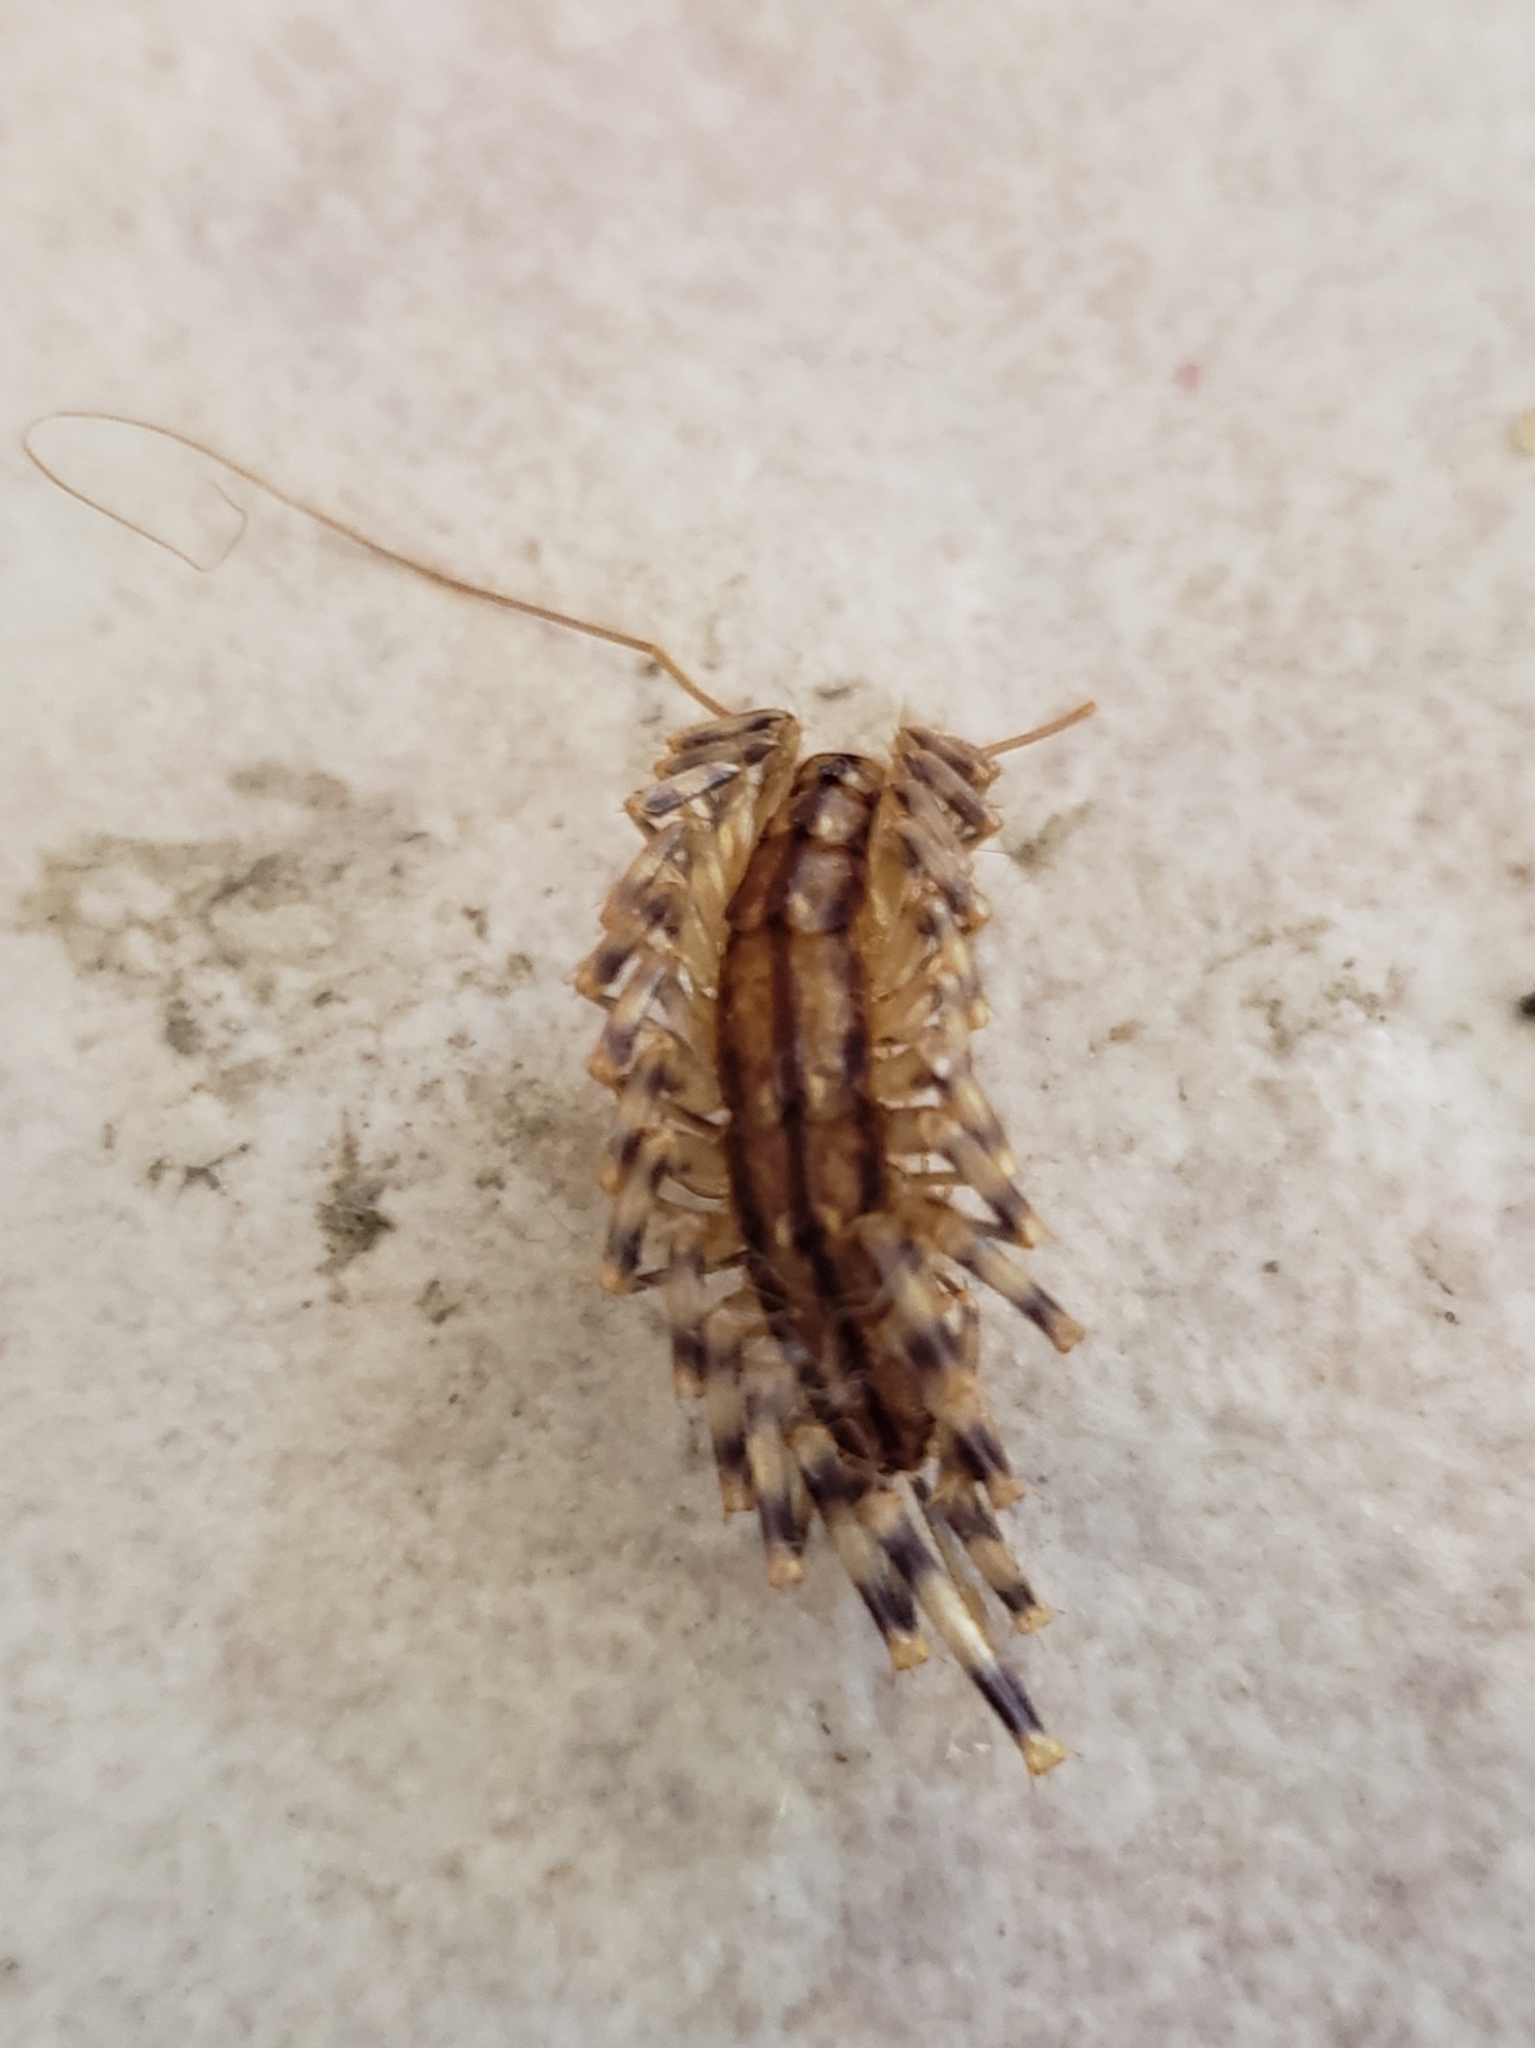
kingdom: Animalia
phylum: Arthropoda
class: Chilopoda
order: Scutigeromorpha
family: Scutigeridae
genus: Scutigera
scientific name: Scutigera coleoptrata
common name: House centipede
